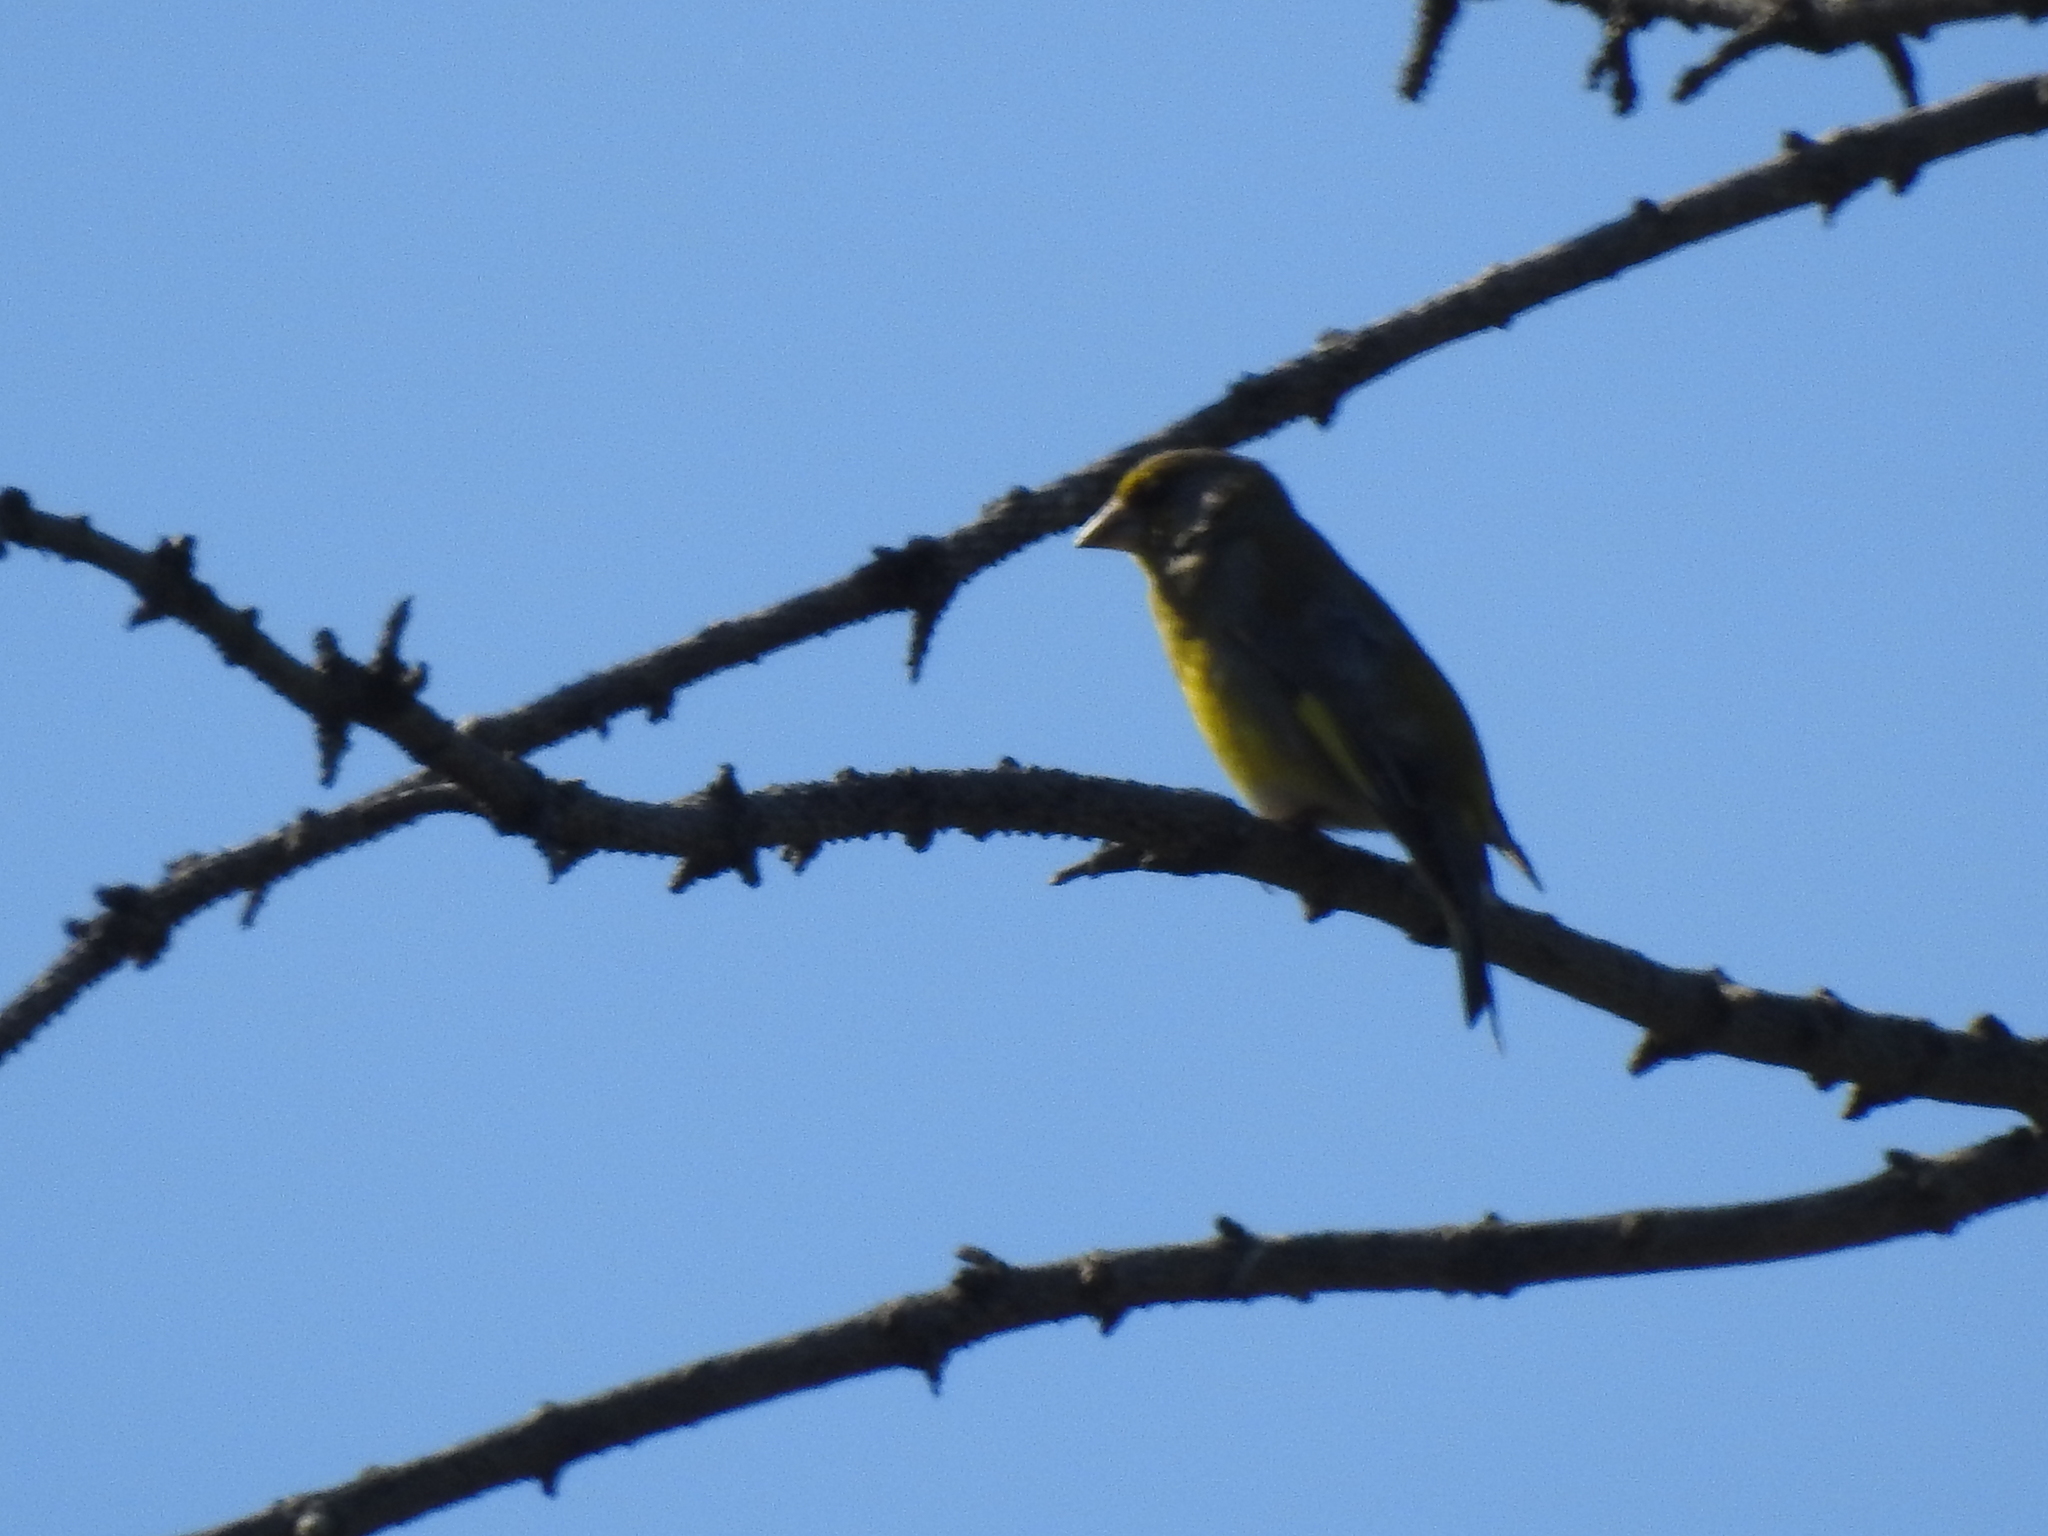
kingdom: Plantae
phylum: Tracheophyta
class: Liliopsida
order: Poales
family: Poaceae
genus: Chloris
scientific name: Chloris chloris
